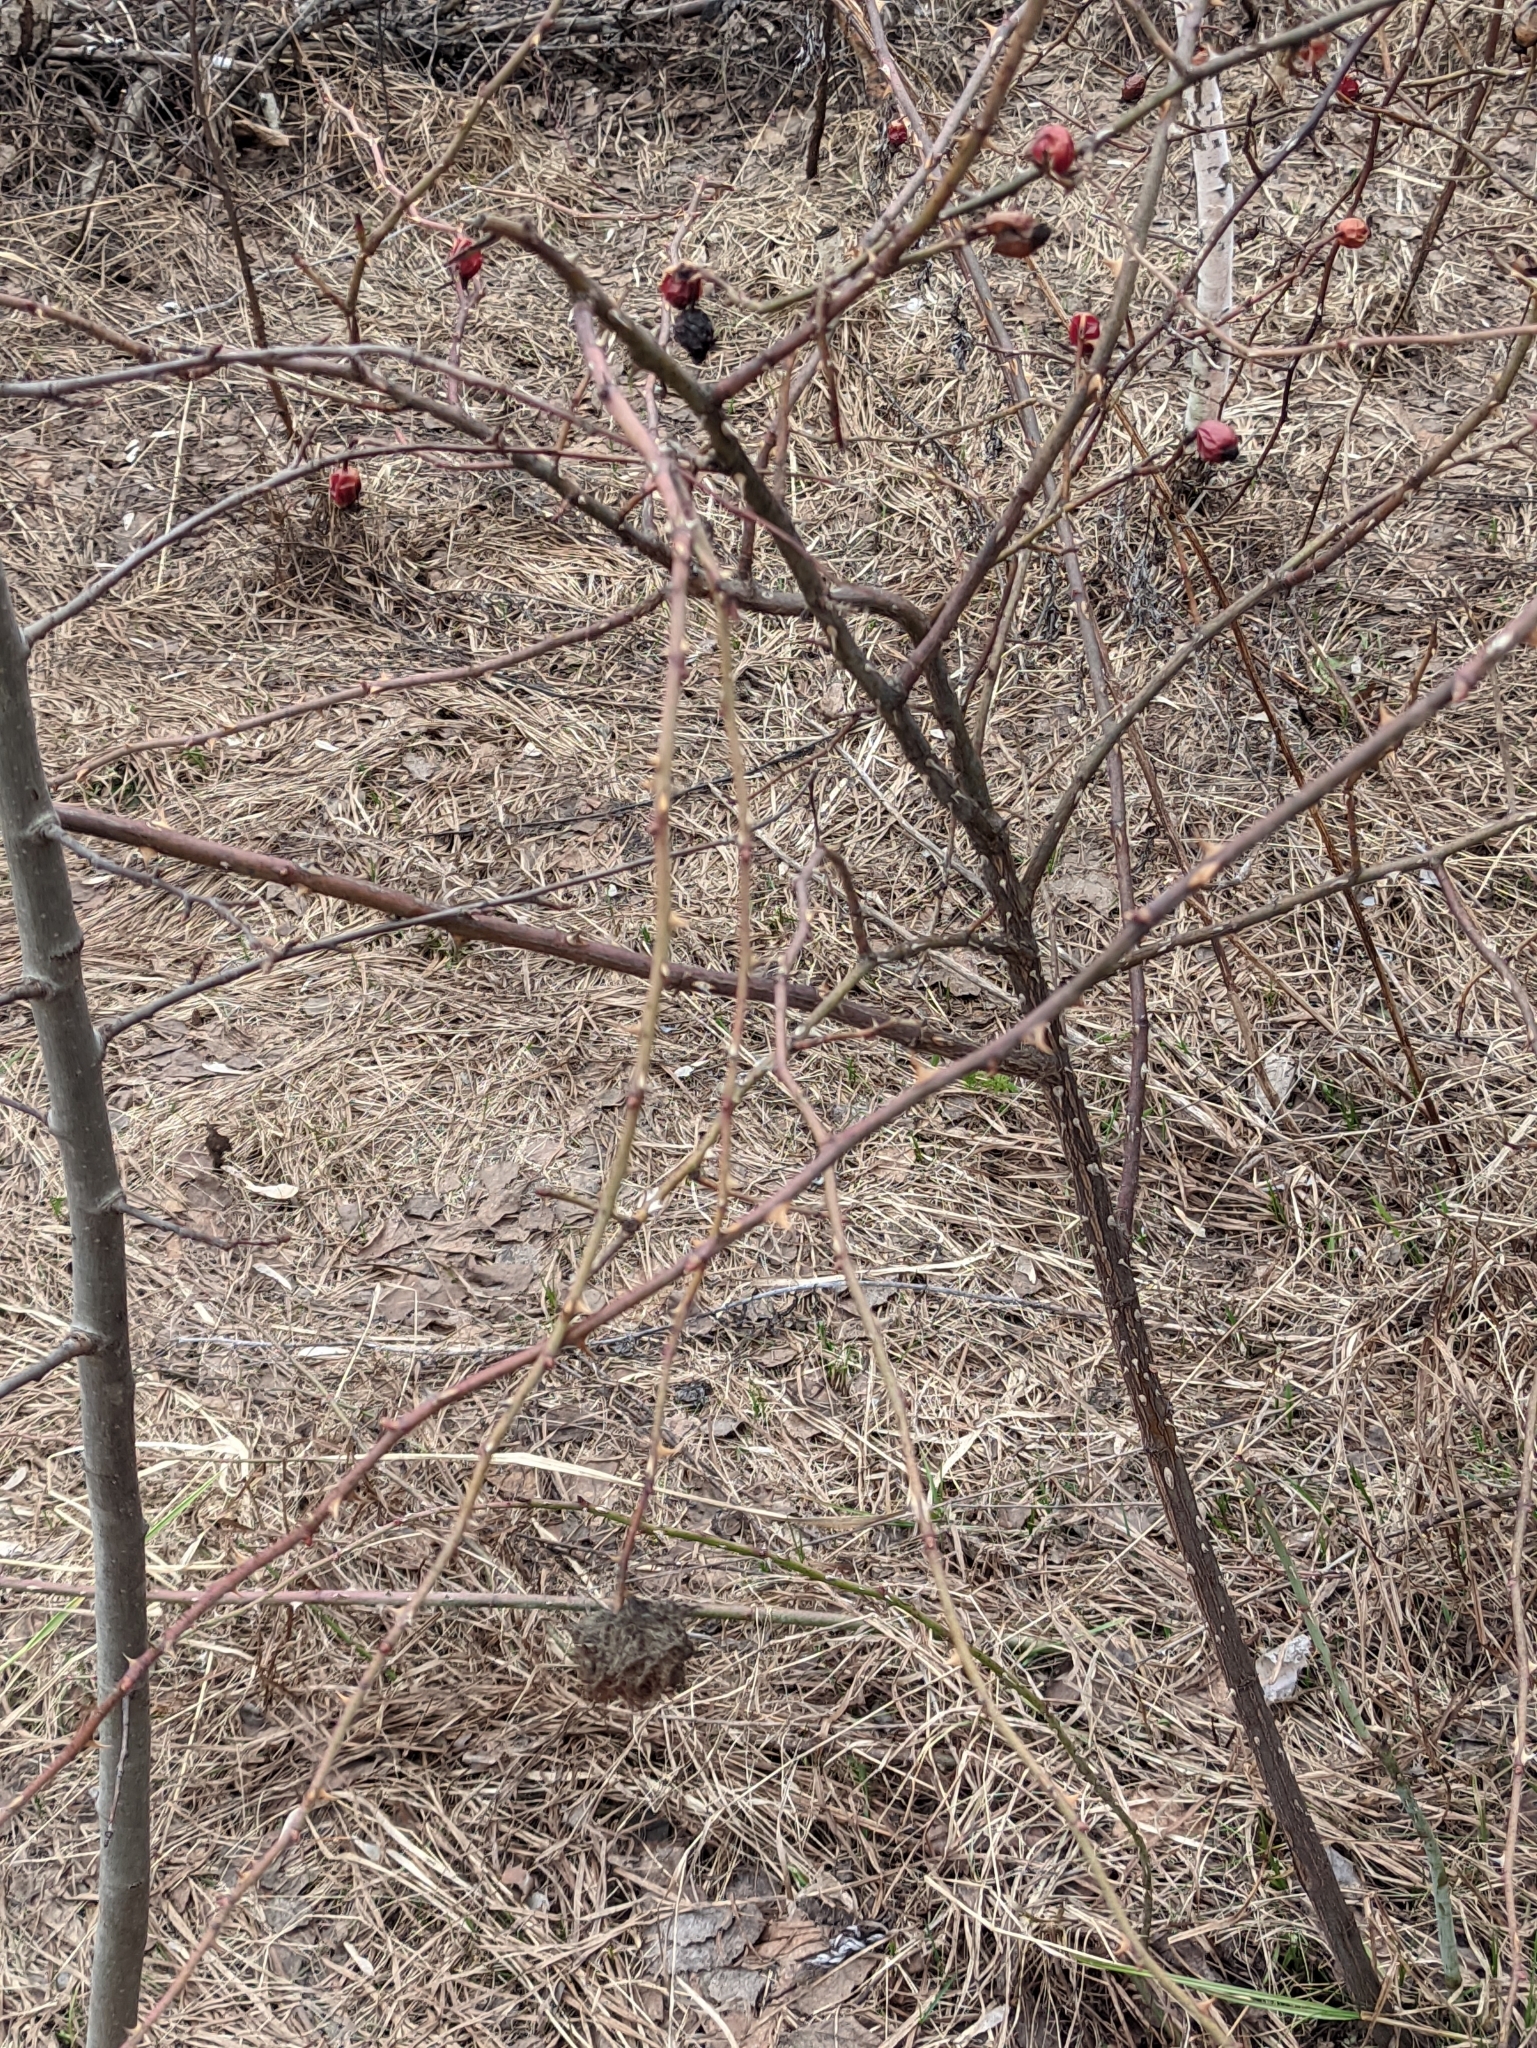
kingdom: Animalia
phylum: Arthropoda
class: Insecta
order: Hymenoptera
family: Cynipidae
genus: Diplolepis
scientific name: Diplolepis rosae
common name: Bedeguar gall
